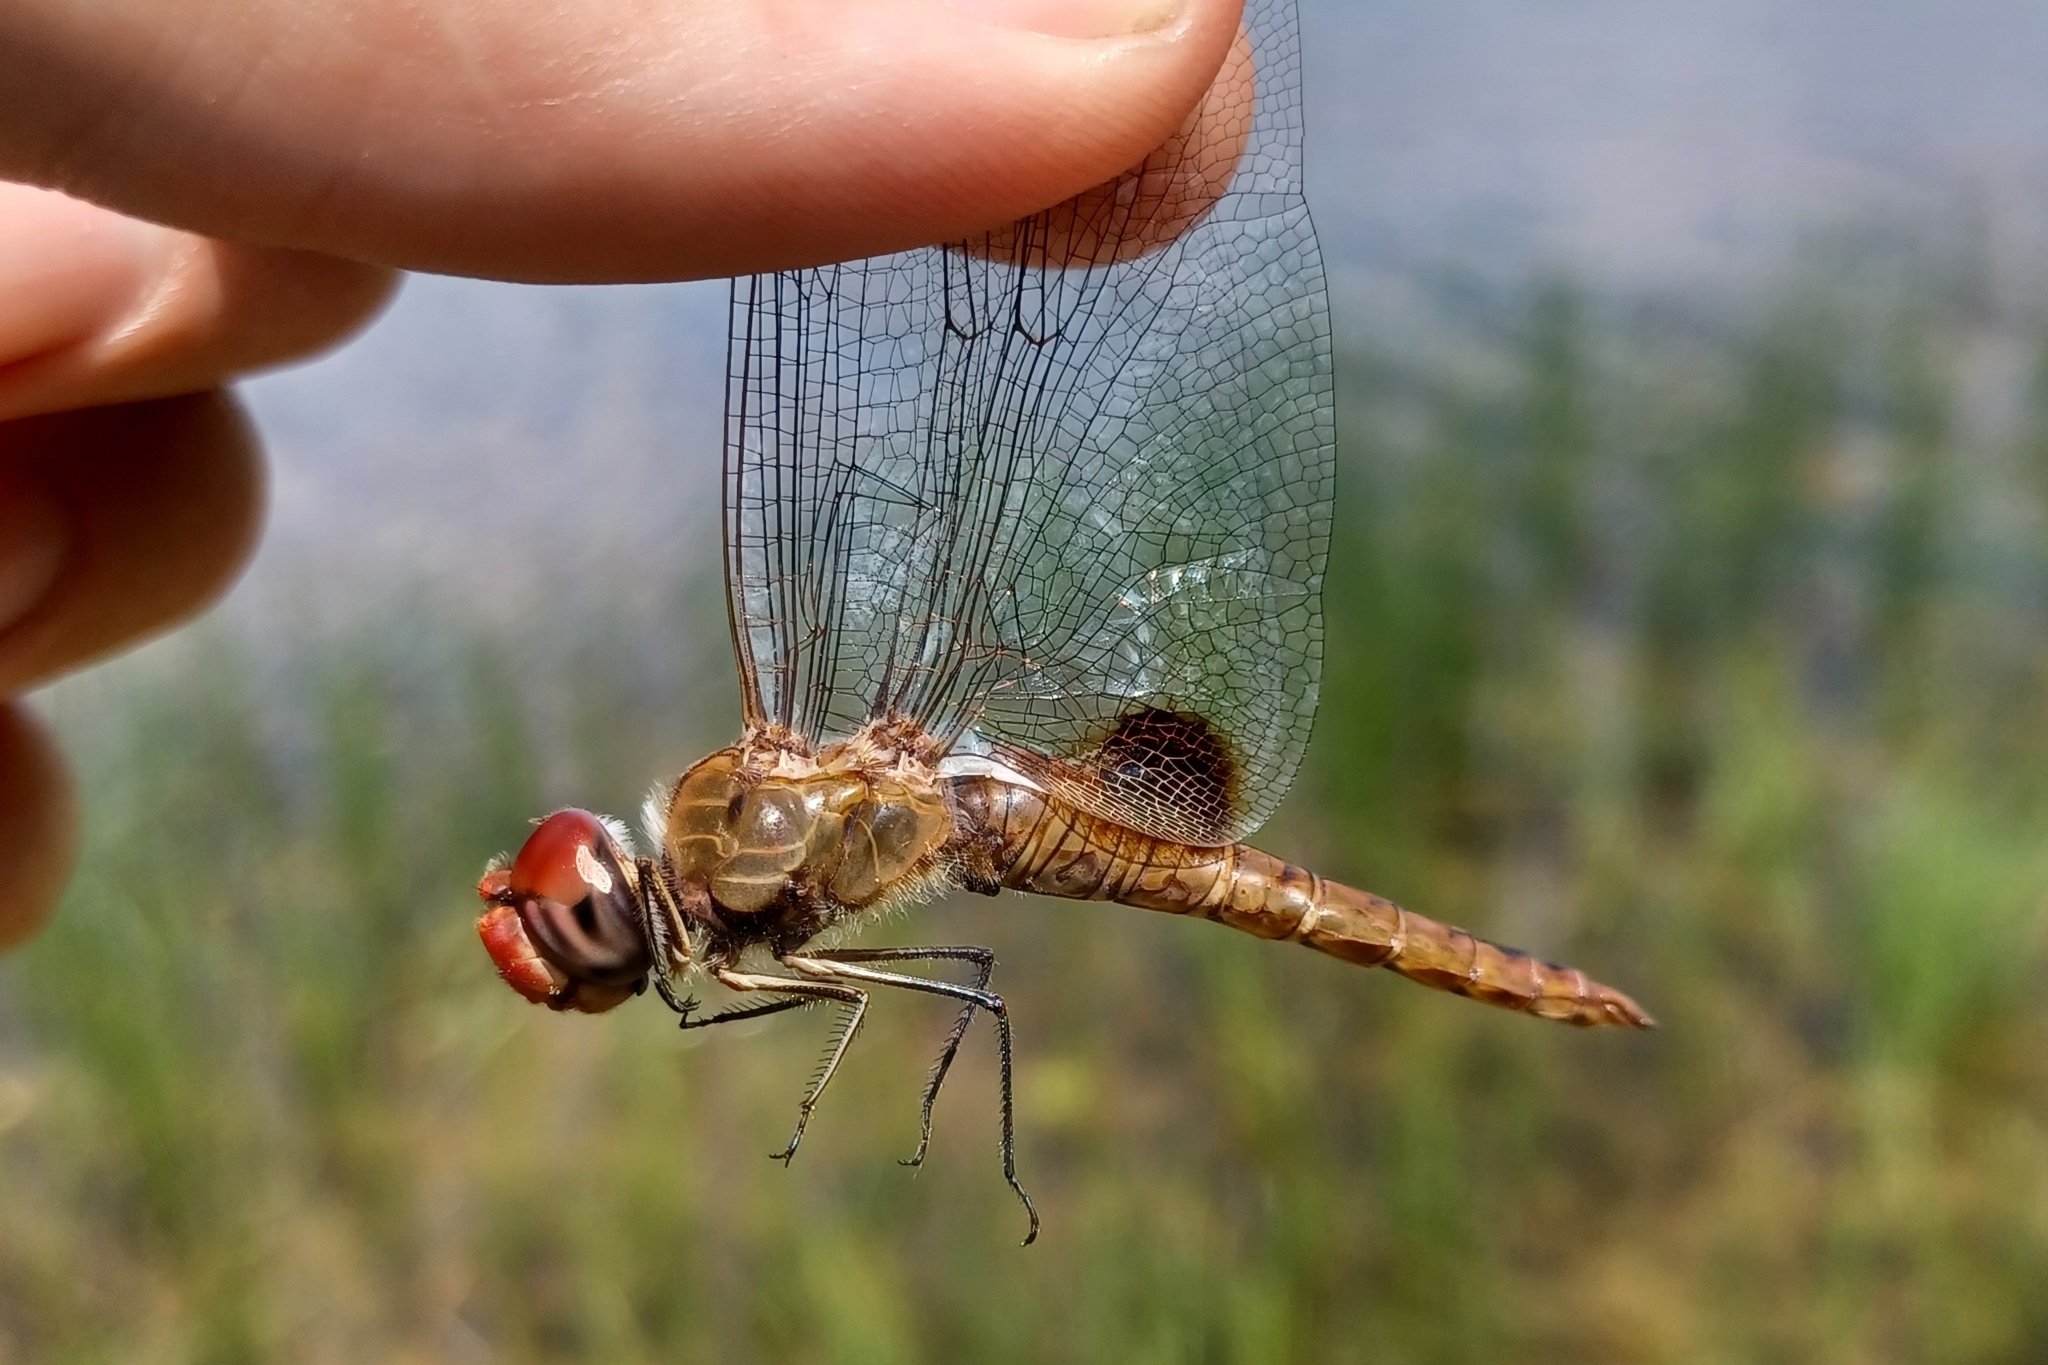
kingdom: Animalia
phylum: Arthropoda
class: Insecta
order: Odonata
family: Libellulidae
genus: Pantala
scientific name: Pantala hymenaea
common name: Spot-winged glider
